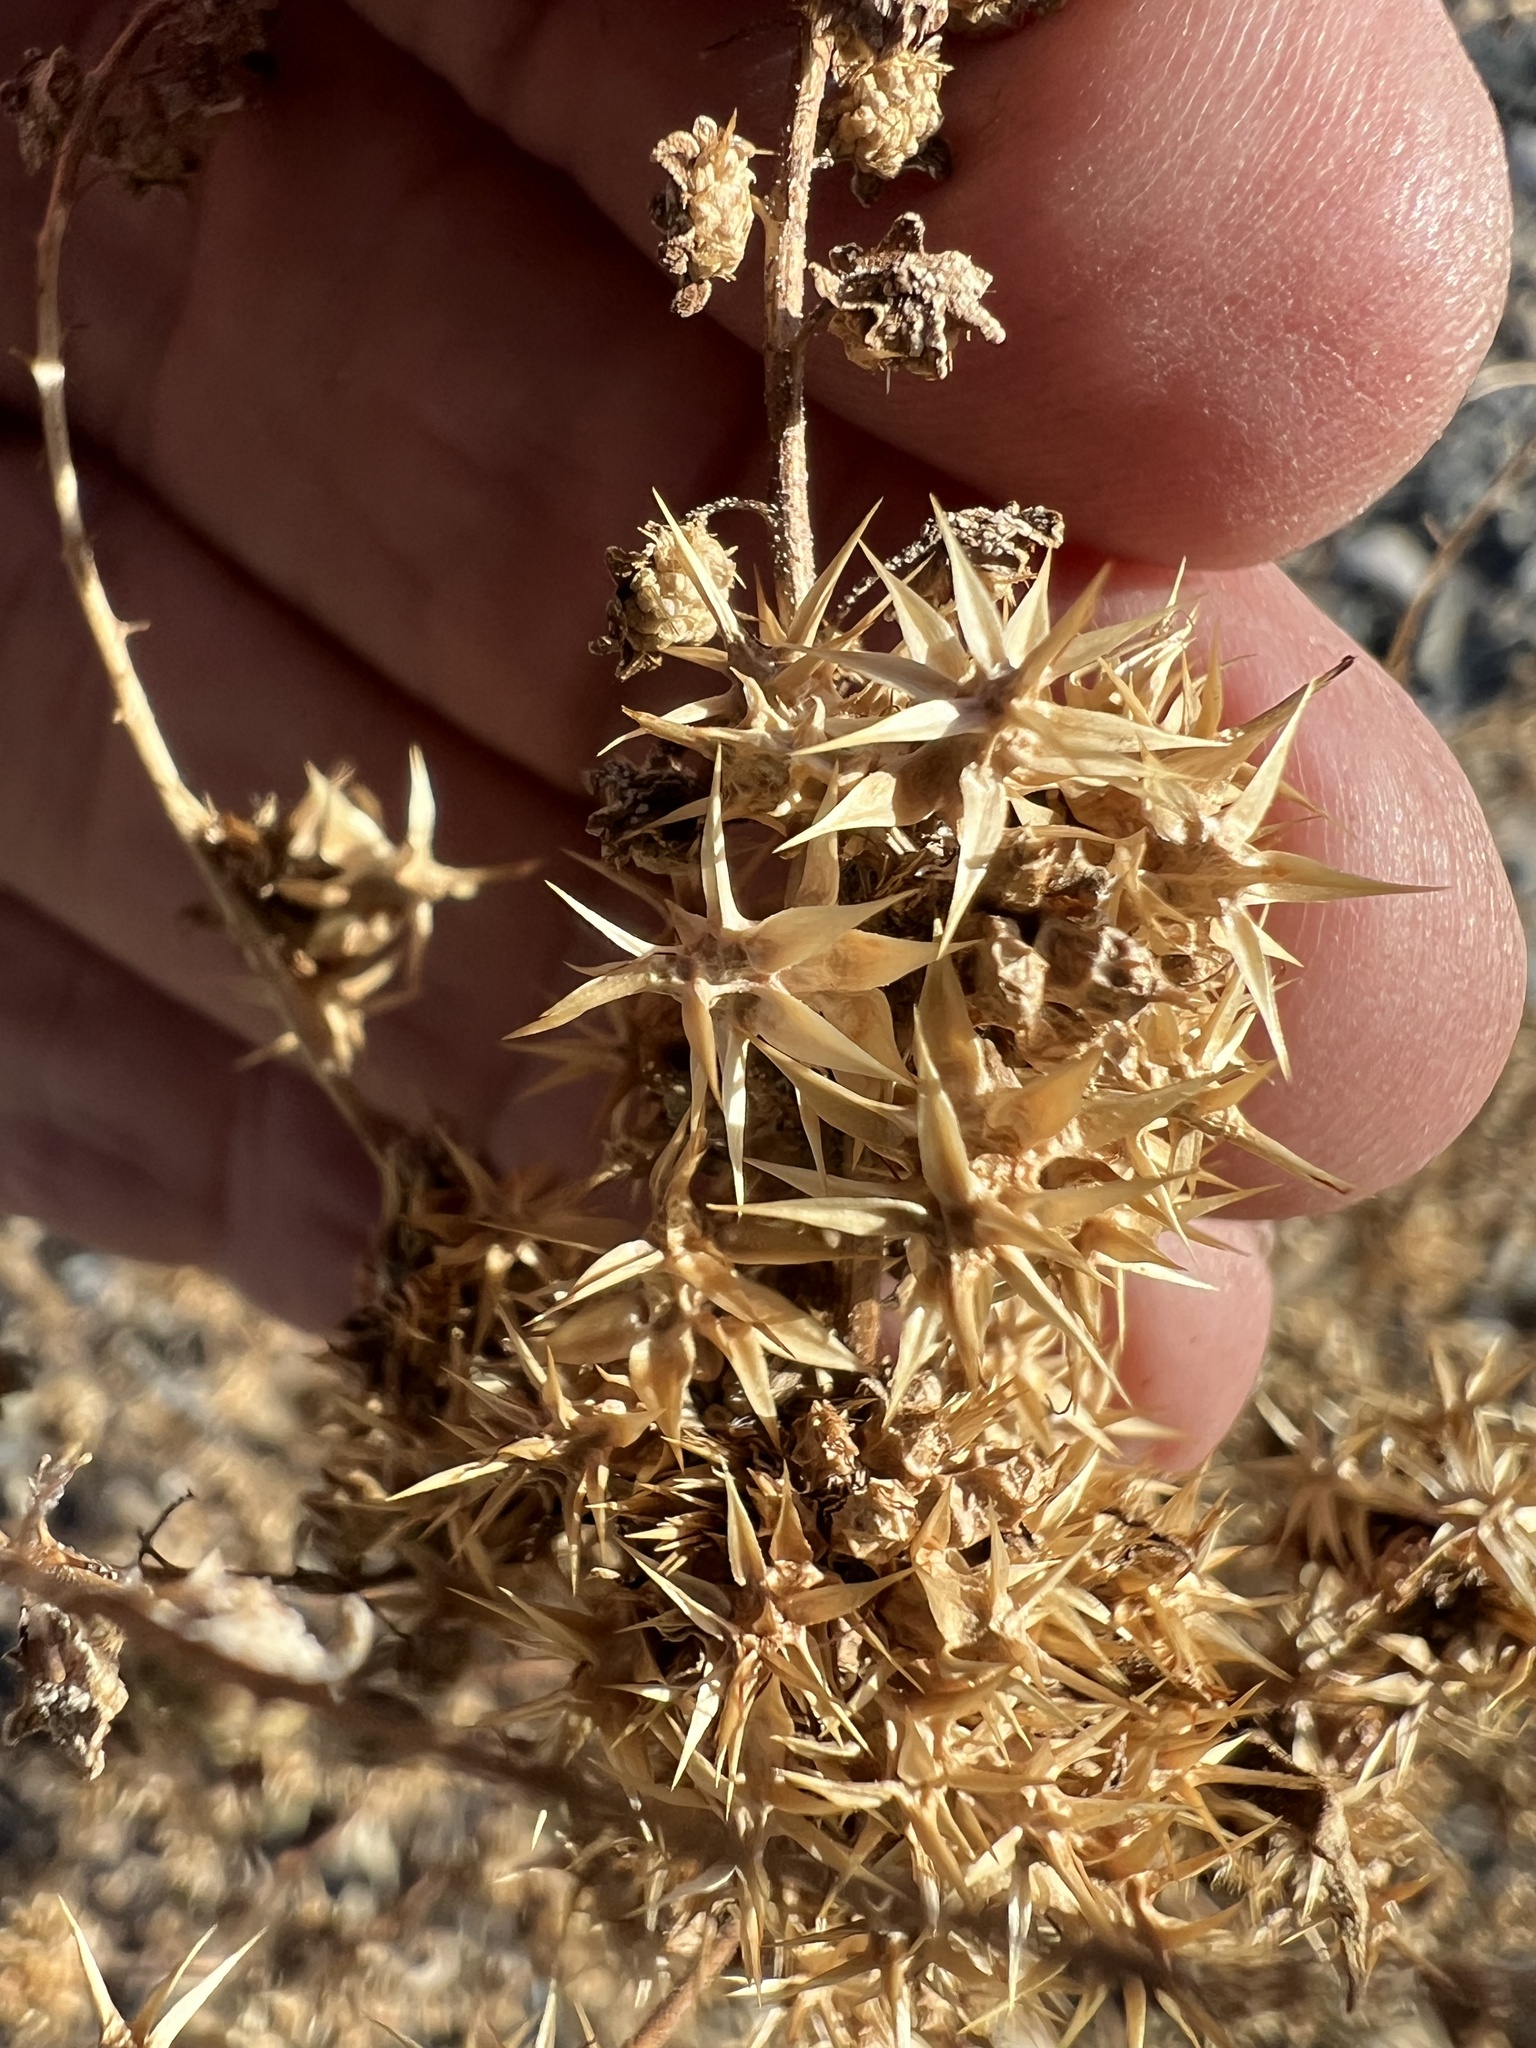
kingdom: Plantae
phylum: Tracheophyta
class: Magnoliopsida
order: Asterales
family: Asteraceae
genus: Ambrosia
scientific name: Ambrosia acanthicarpa
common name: Hooker's bur ragweed
